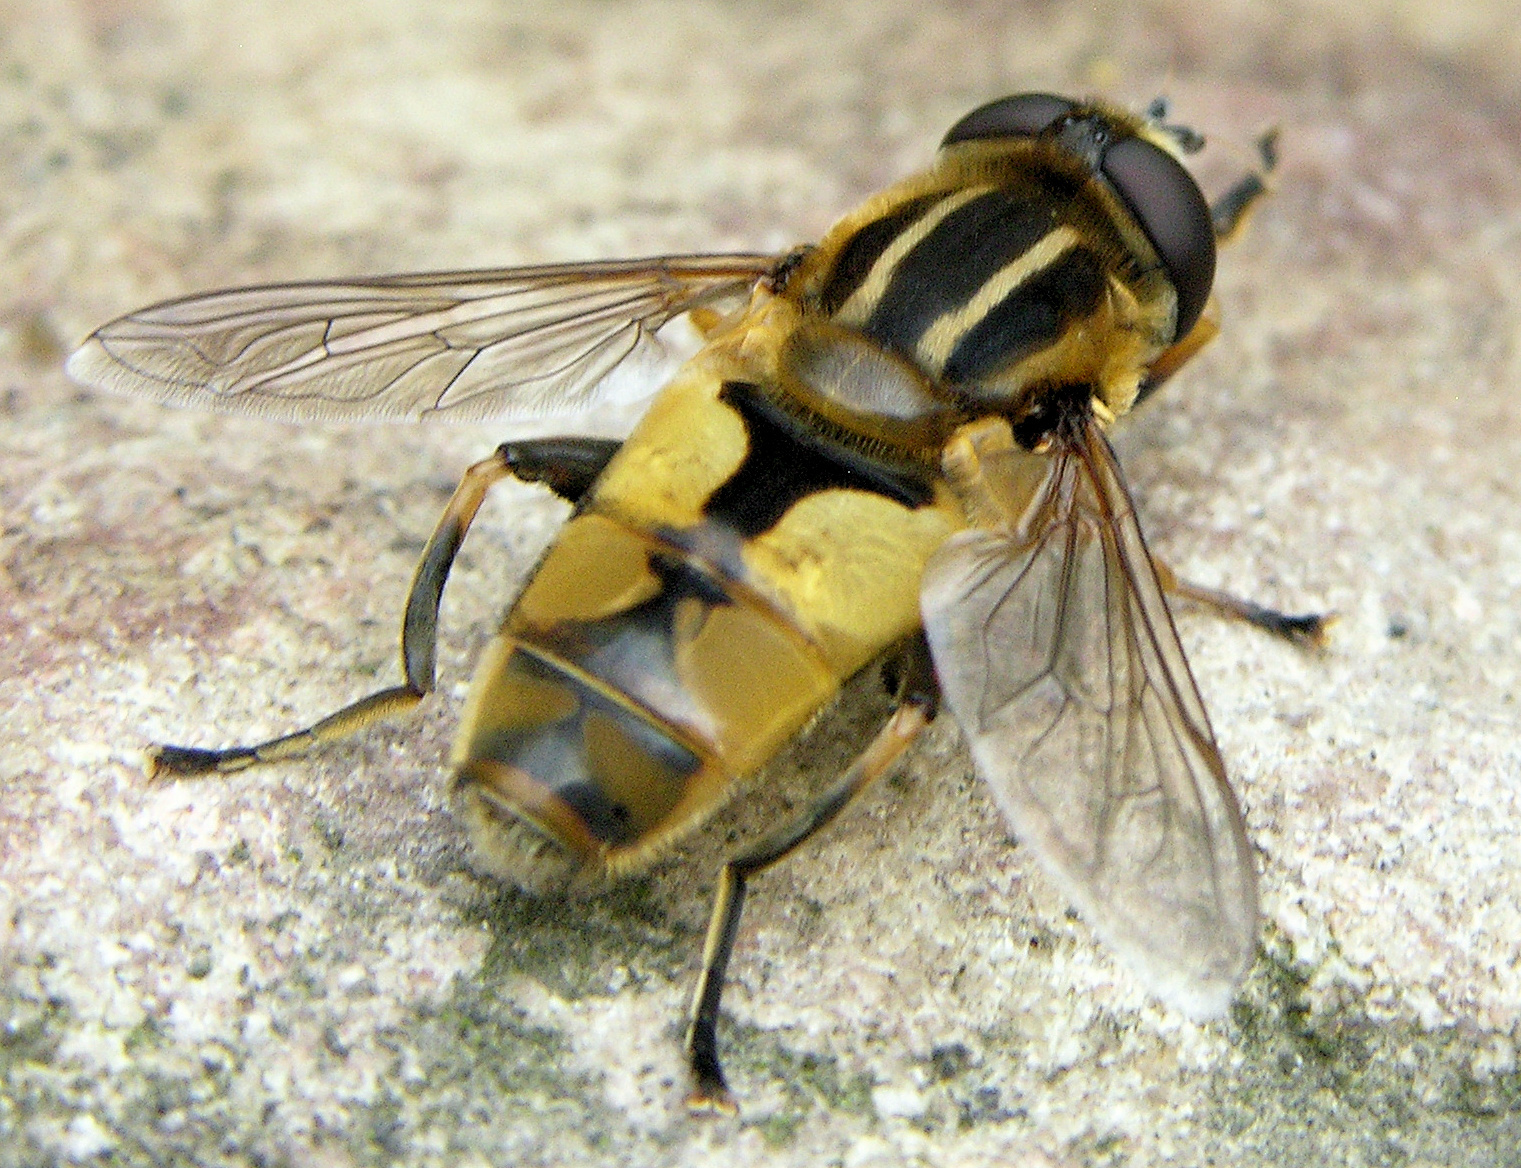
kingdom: Animalia
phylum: Arthropoda
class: Insecta
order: Diptera
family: Syrphidae
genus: Helophilus
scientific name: Helophilus hybridus
